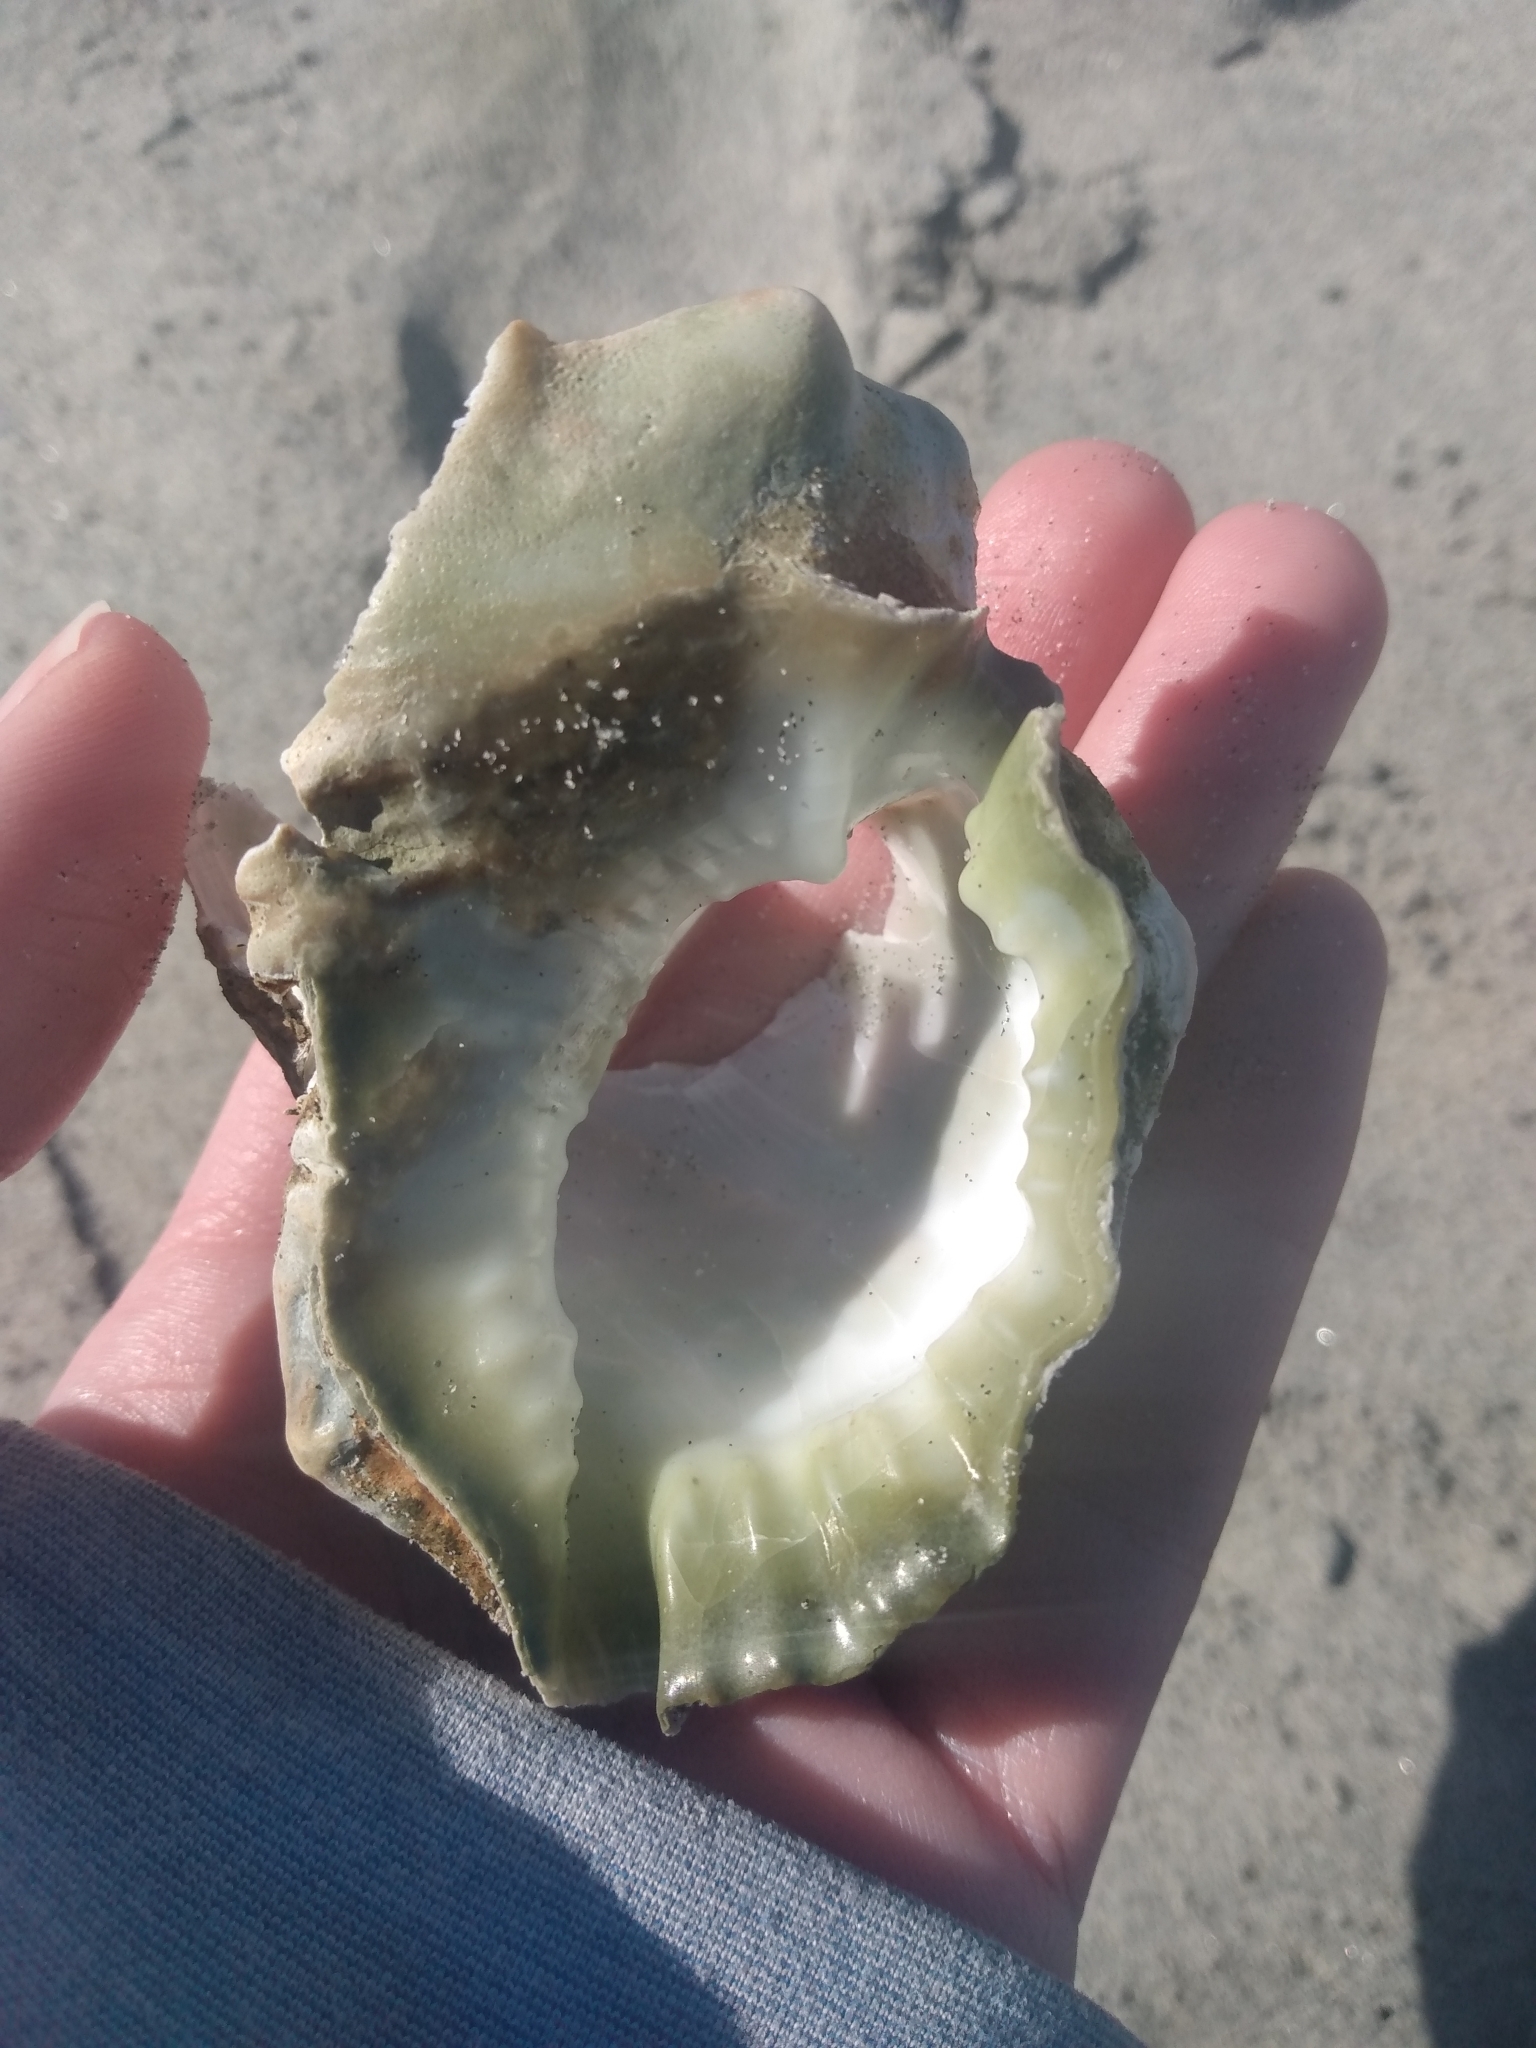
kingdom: Animalia
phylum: Mollusca
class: Gastropoda
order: Littorinimorpha
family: Bursidae
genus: Crossata
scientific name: Crossata californica
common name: California frogsnail
